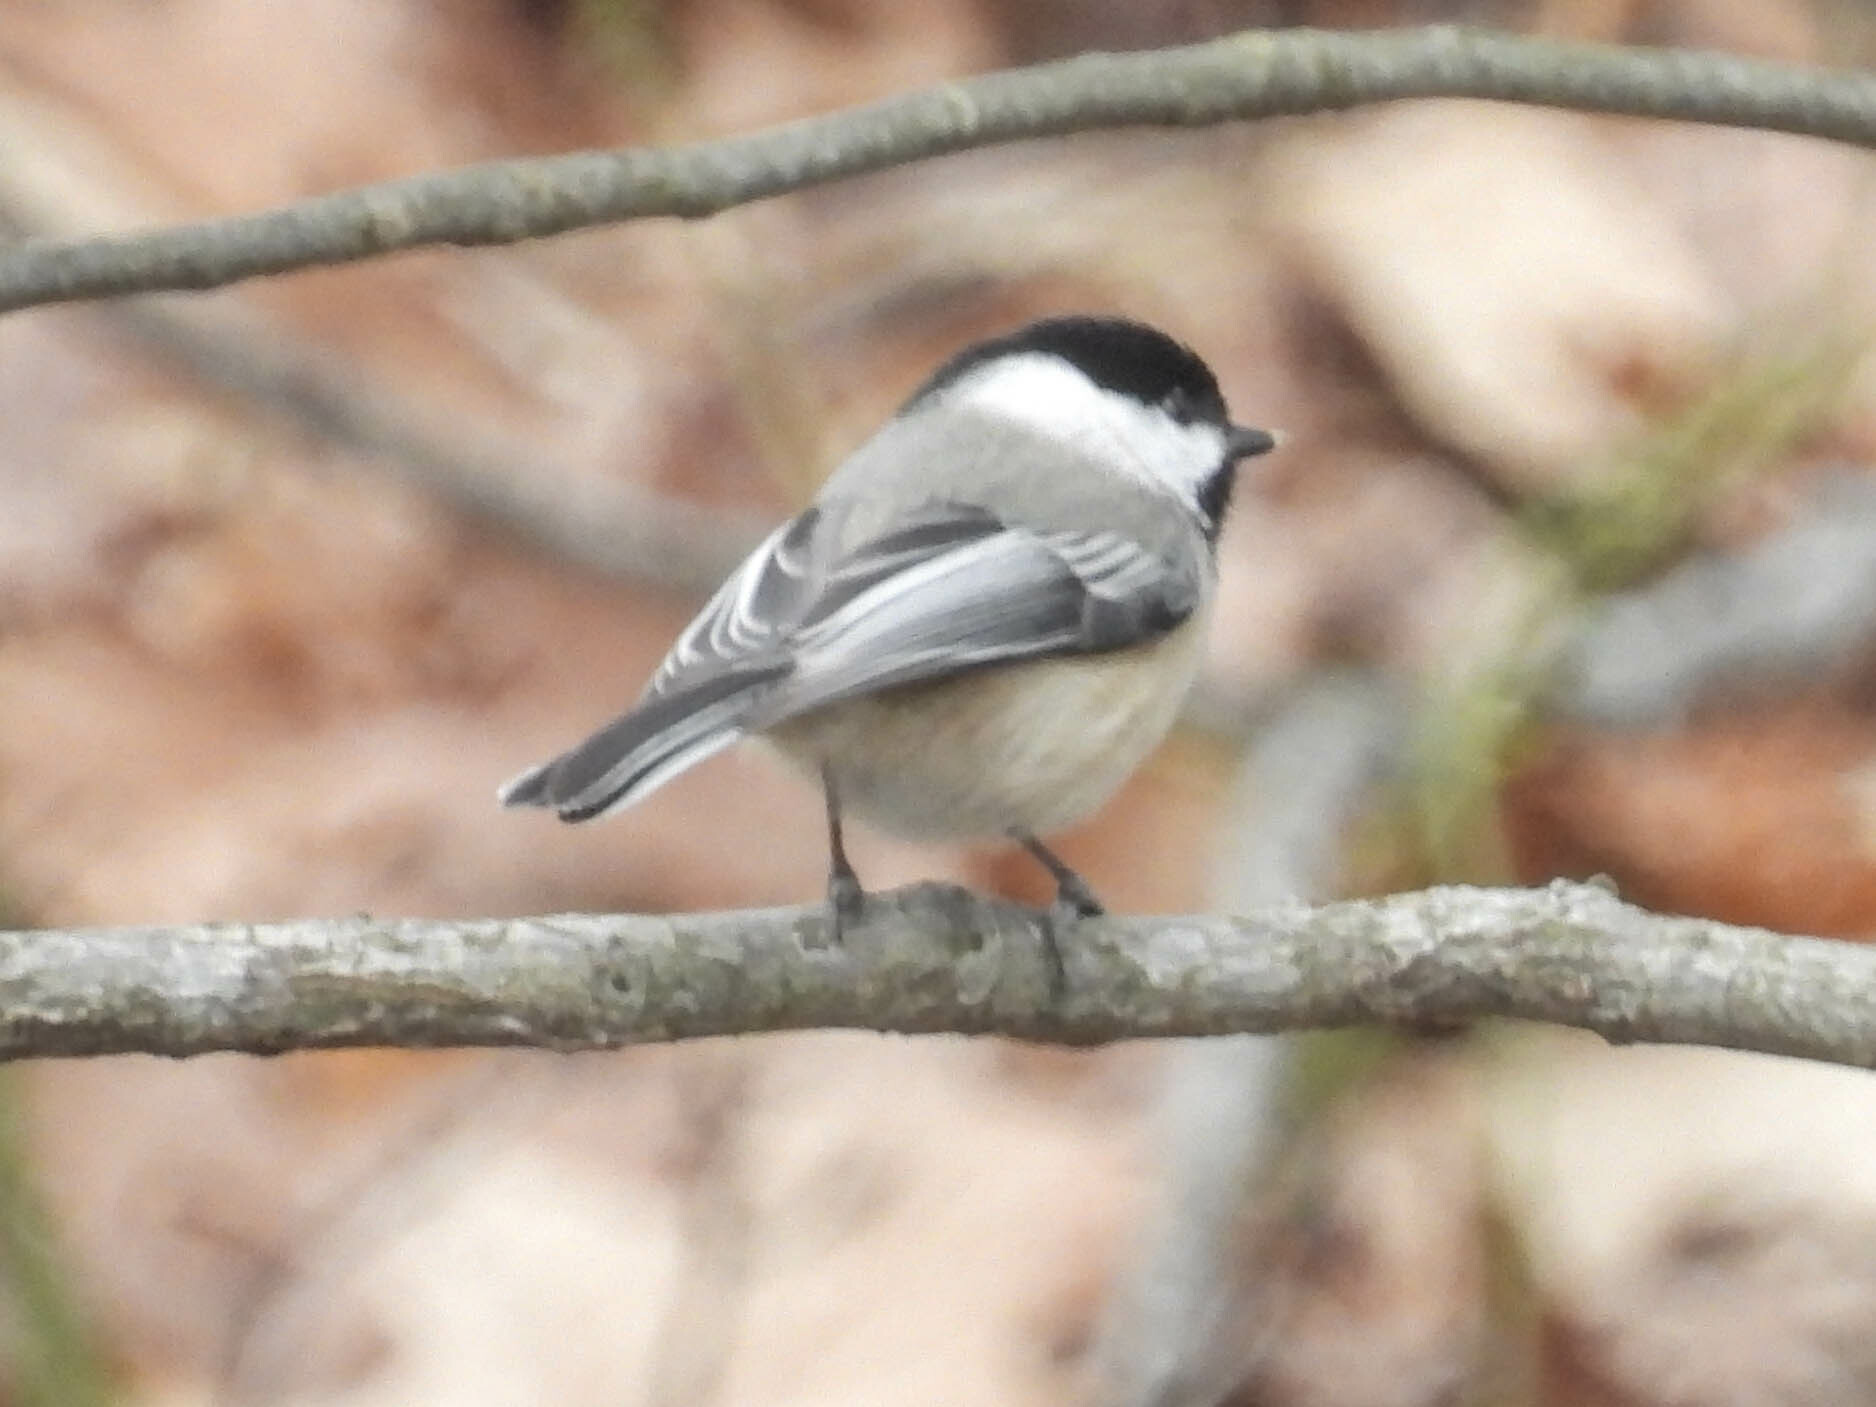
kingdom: Animalia
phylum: Chordata
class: Aves
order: Passeriformes
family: Paridae
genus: Poecile
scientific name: Poecile atricapillus
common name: Black-capped chickadee
